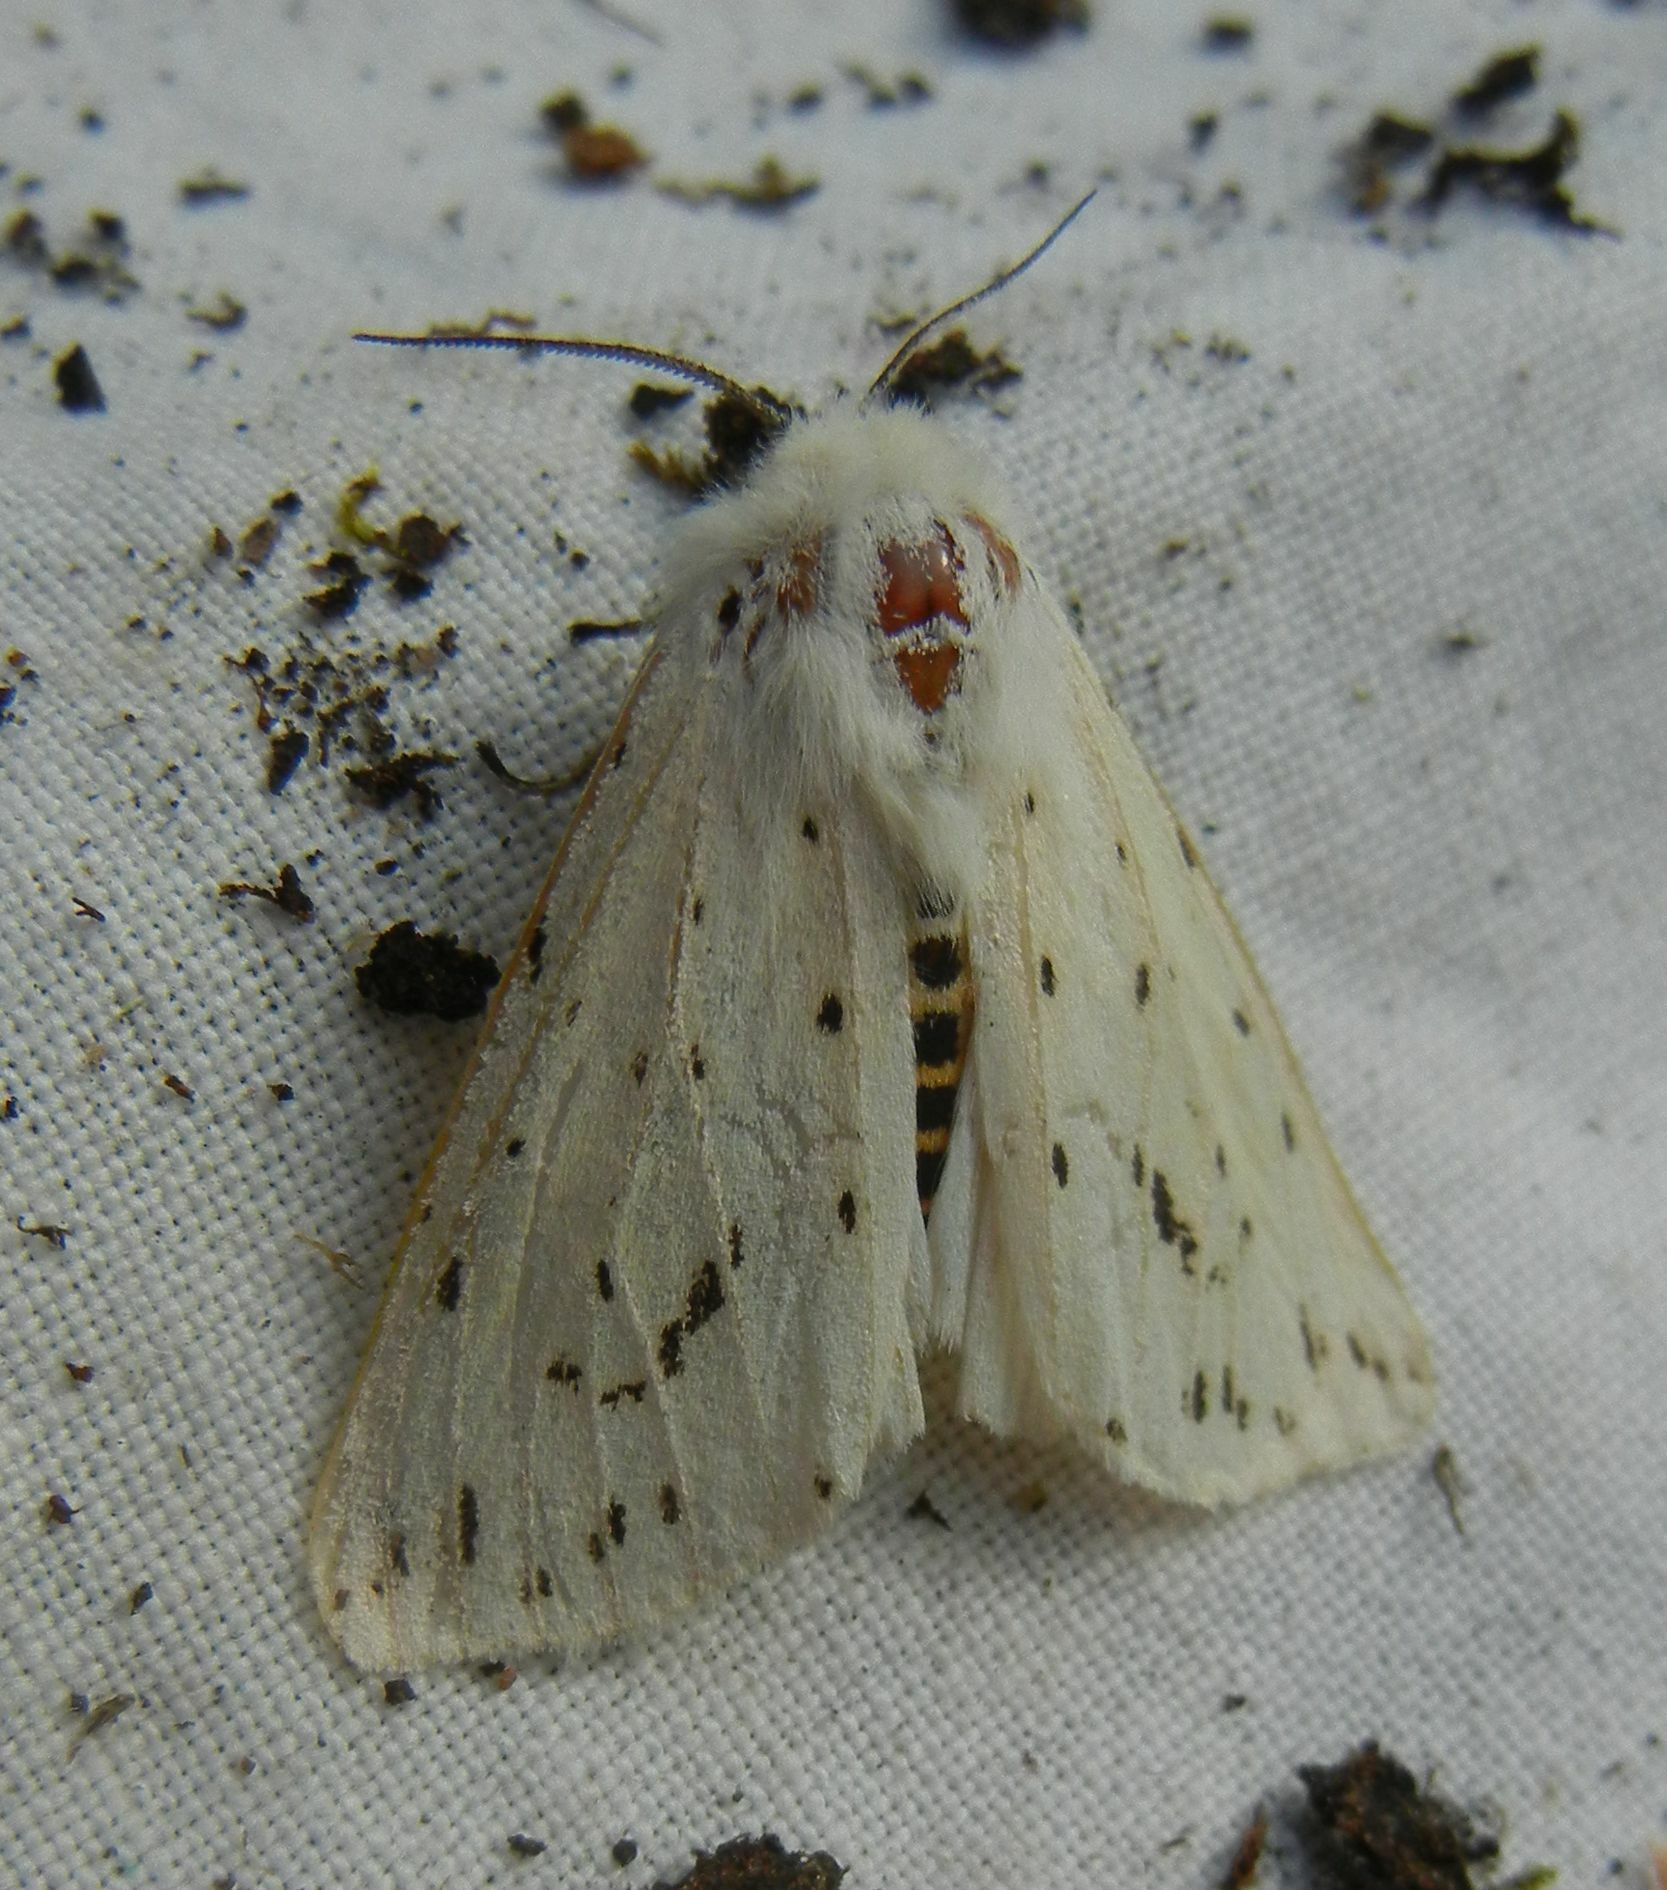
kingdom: Animalia
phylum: Arthropoda
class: Insecta
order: Lepidoptera
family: Erebidae
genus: Spilosoma
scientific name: Spilosoma lubricipeda
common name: White ermine
